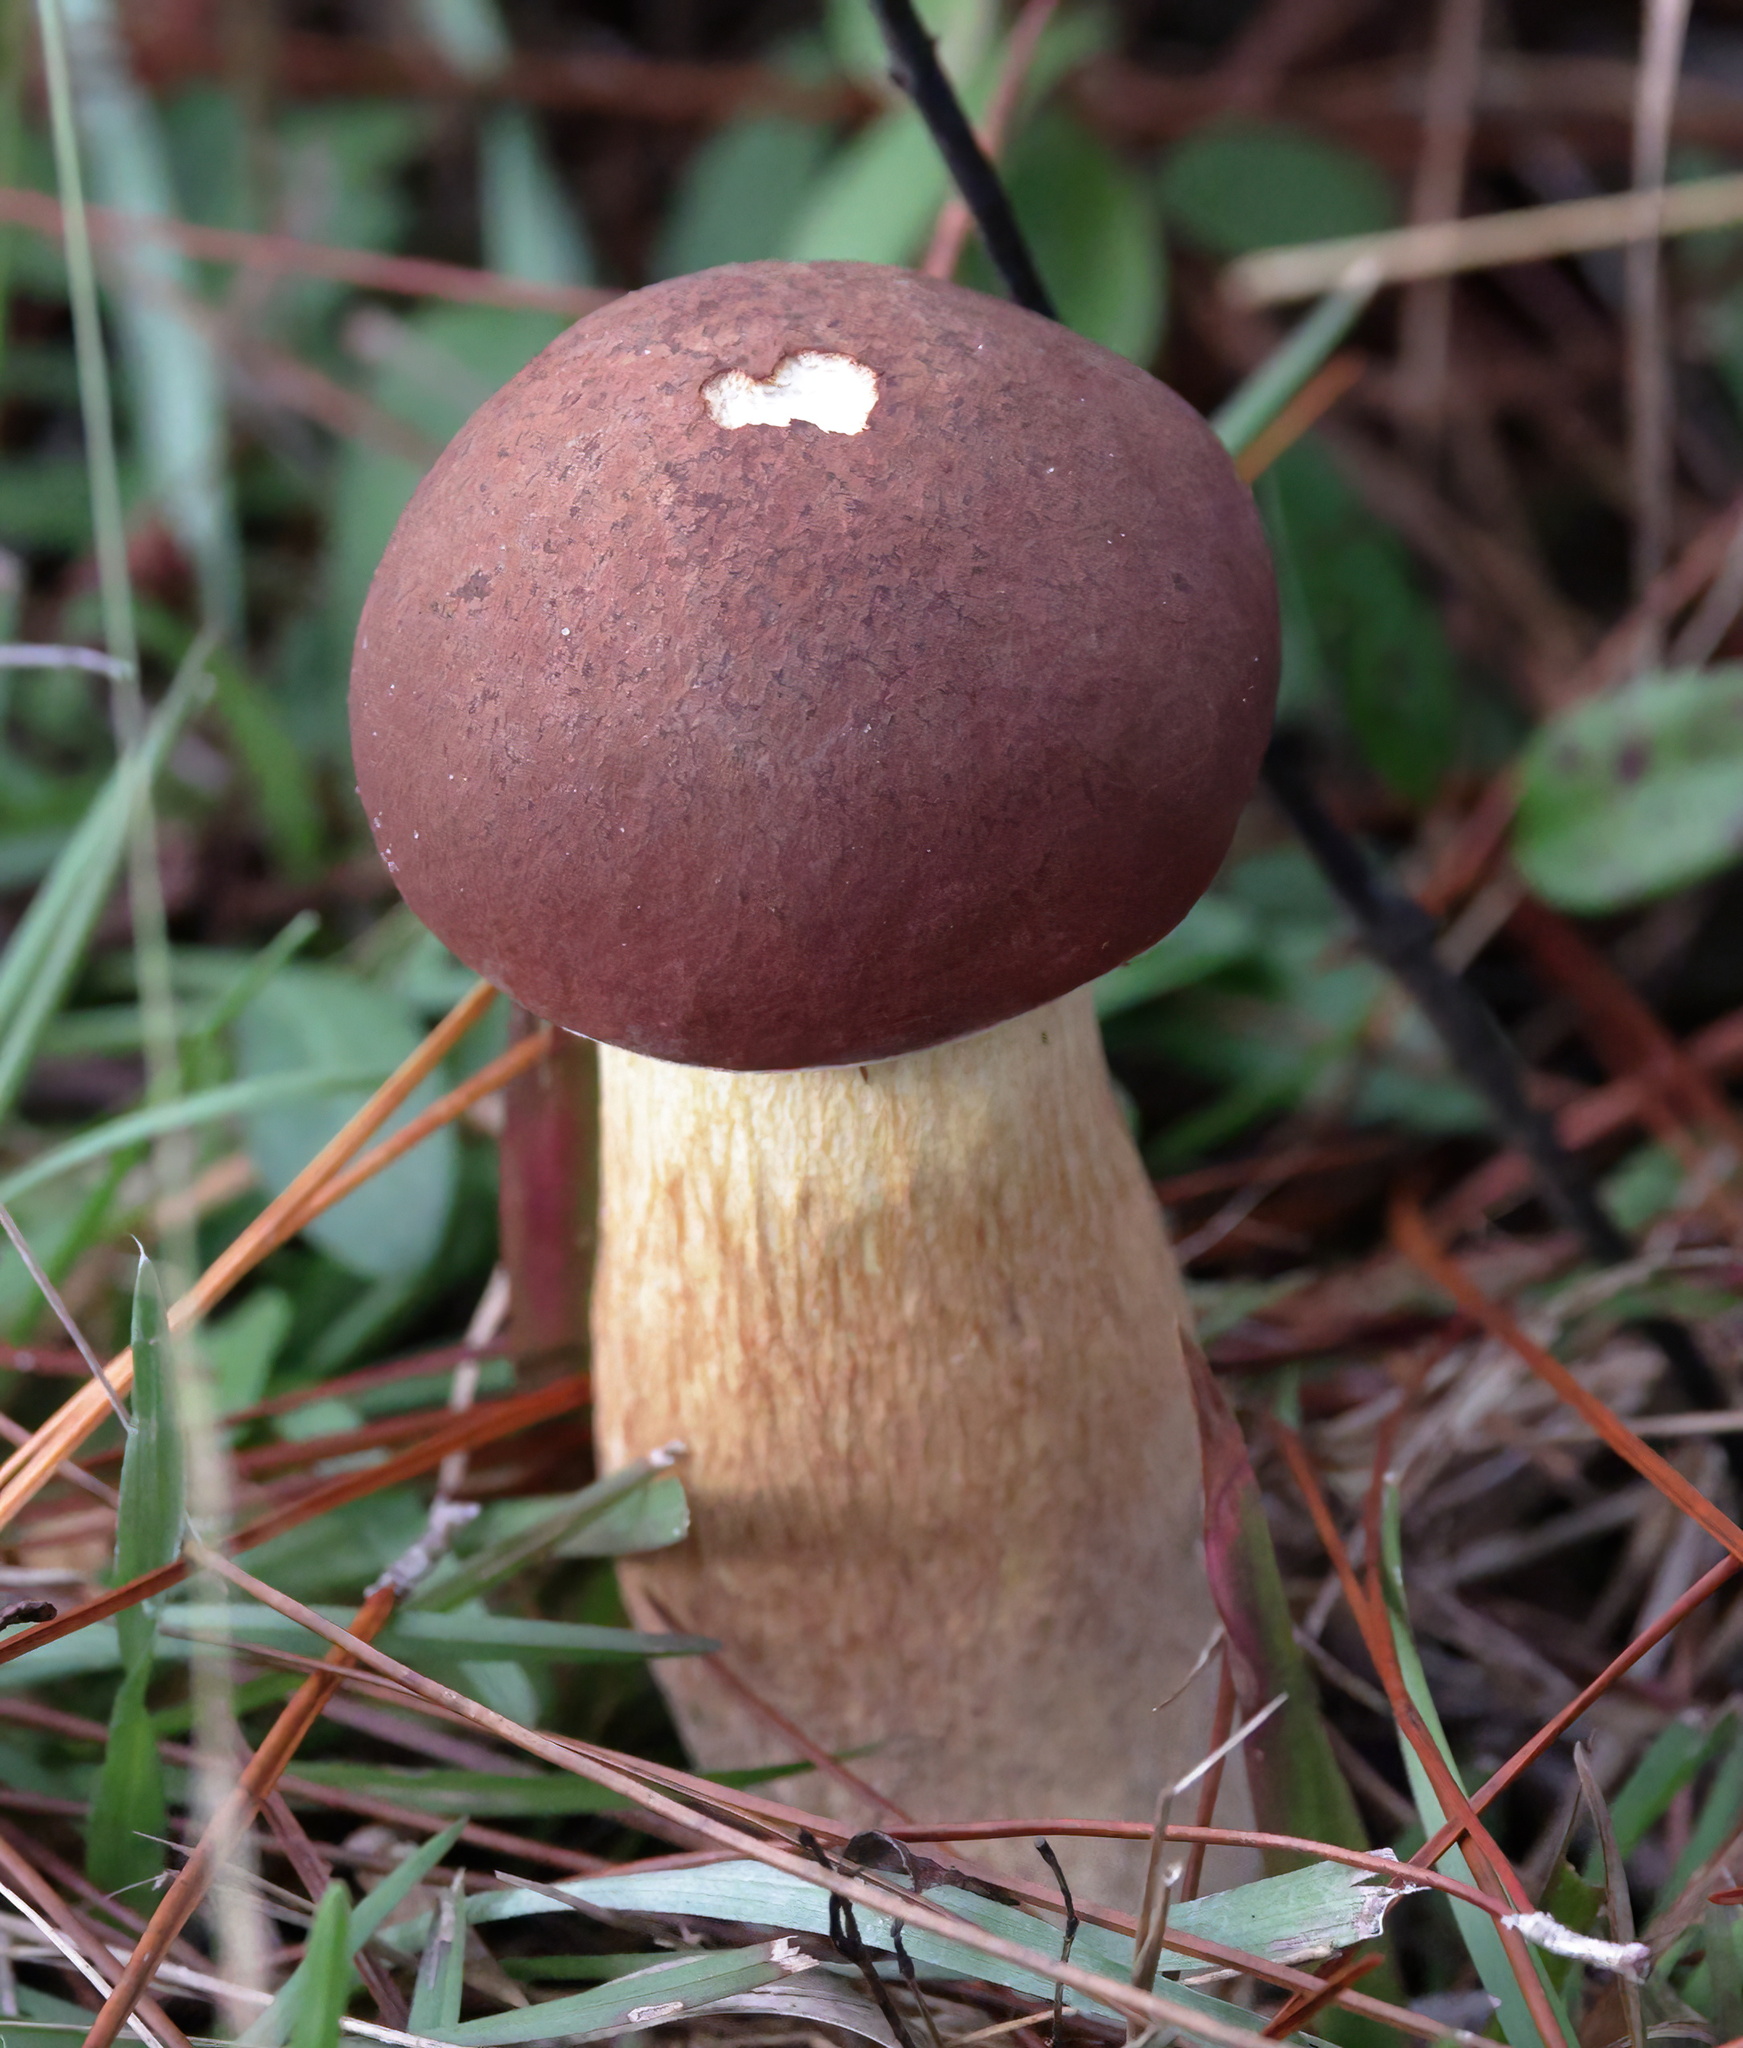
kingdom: Fungi
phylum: Basidiomycota
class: Agaricomycetes
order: Boletales
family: Boletaceae
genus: Boletus
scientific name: Boletus pseudopinophilus
